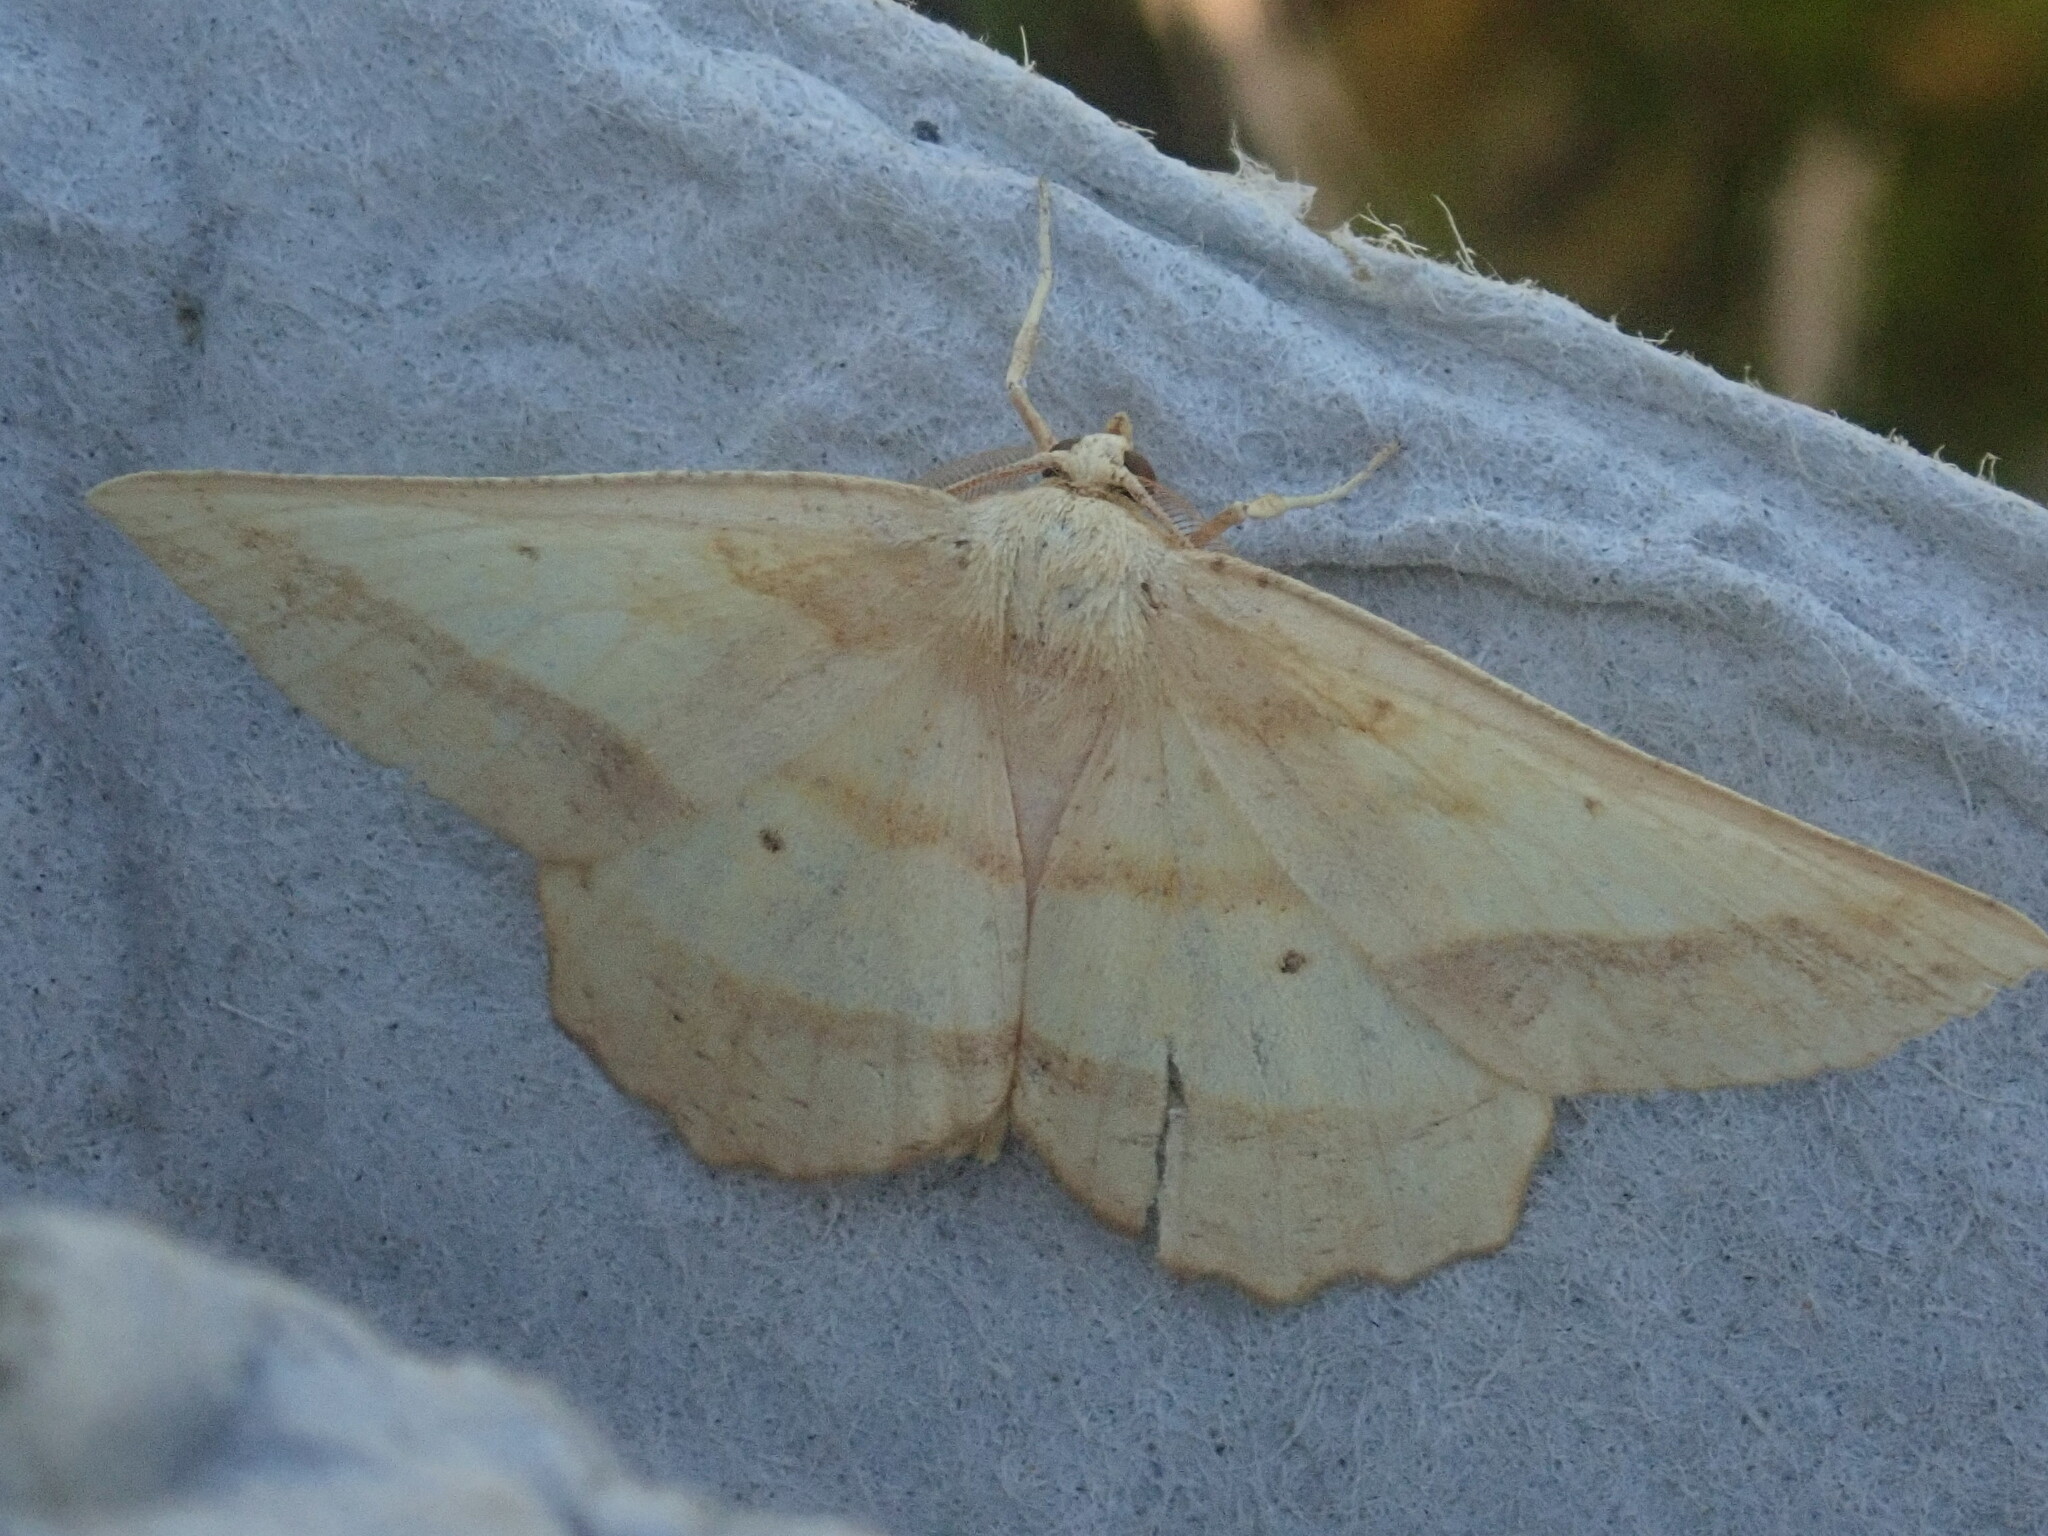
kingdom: Animalia
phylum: Arthropoda
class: Insecta
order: Lepidoptera
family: Geometridae
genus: Euchlaena
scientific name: Euchlaena serrata
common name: Saw wing
